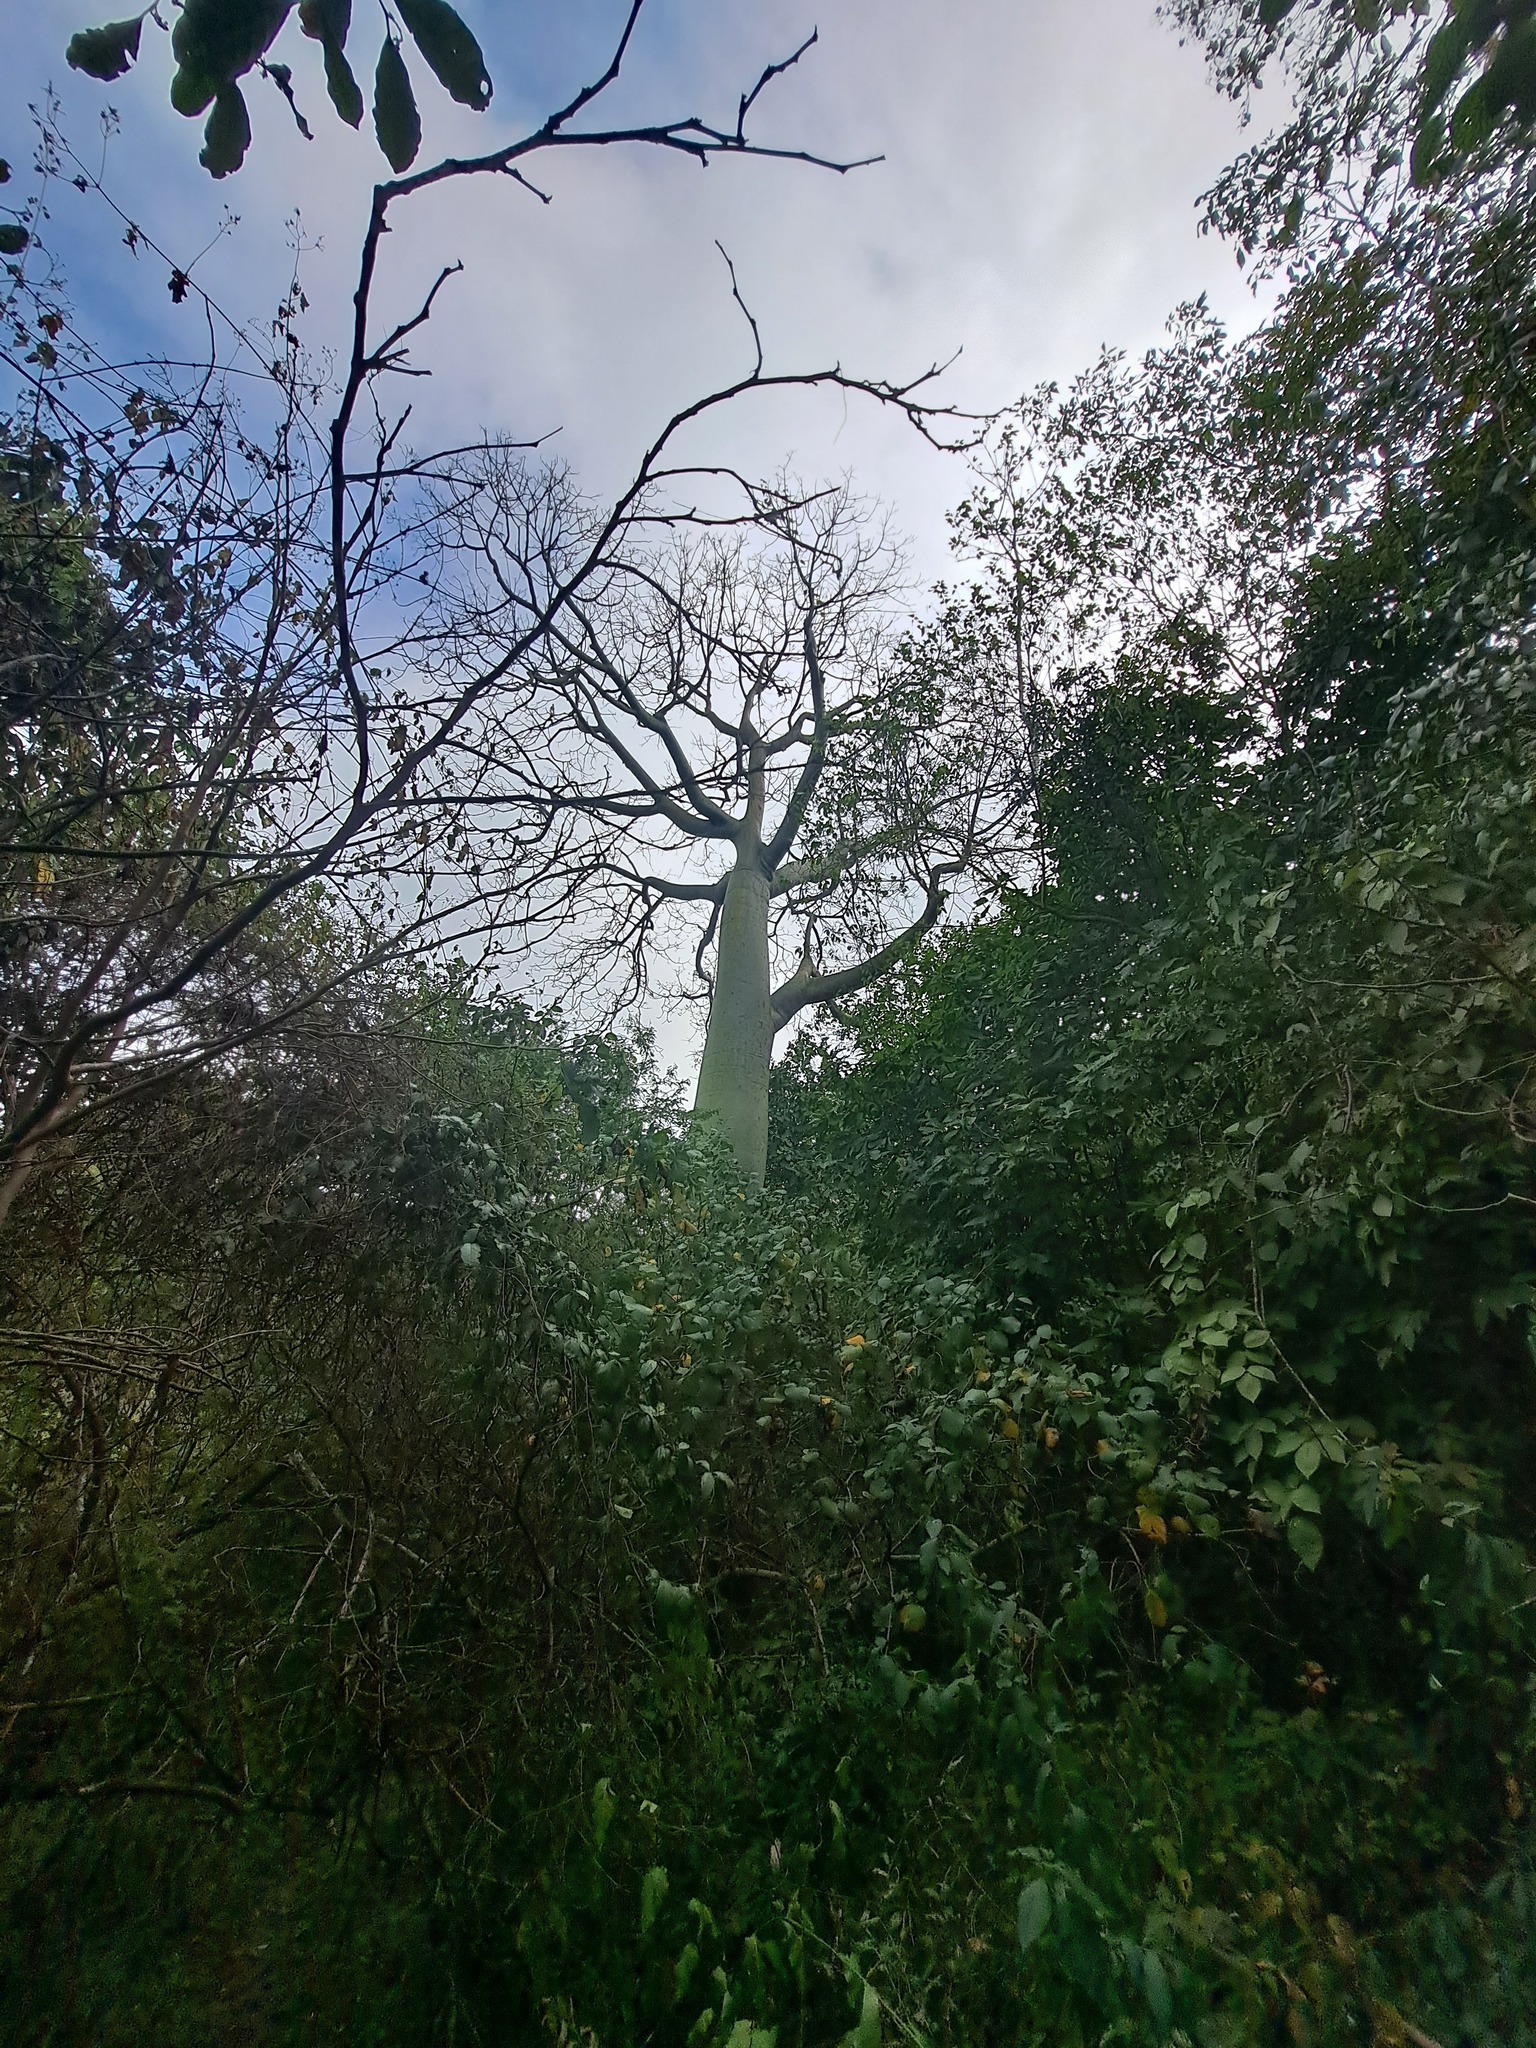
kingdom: Plantae
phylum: Tracheophyta
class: Magnoliopsida
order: Malvales
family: Malvaceae
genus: Ceiba
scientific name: Ceiba trischistandra
